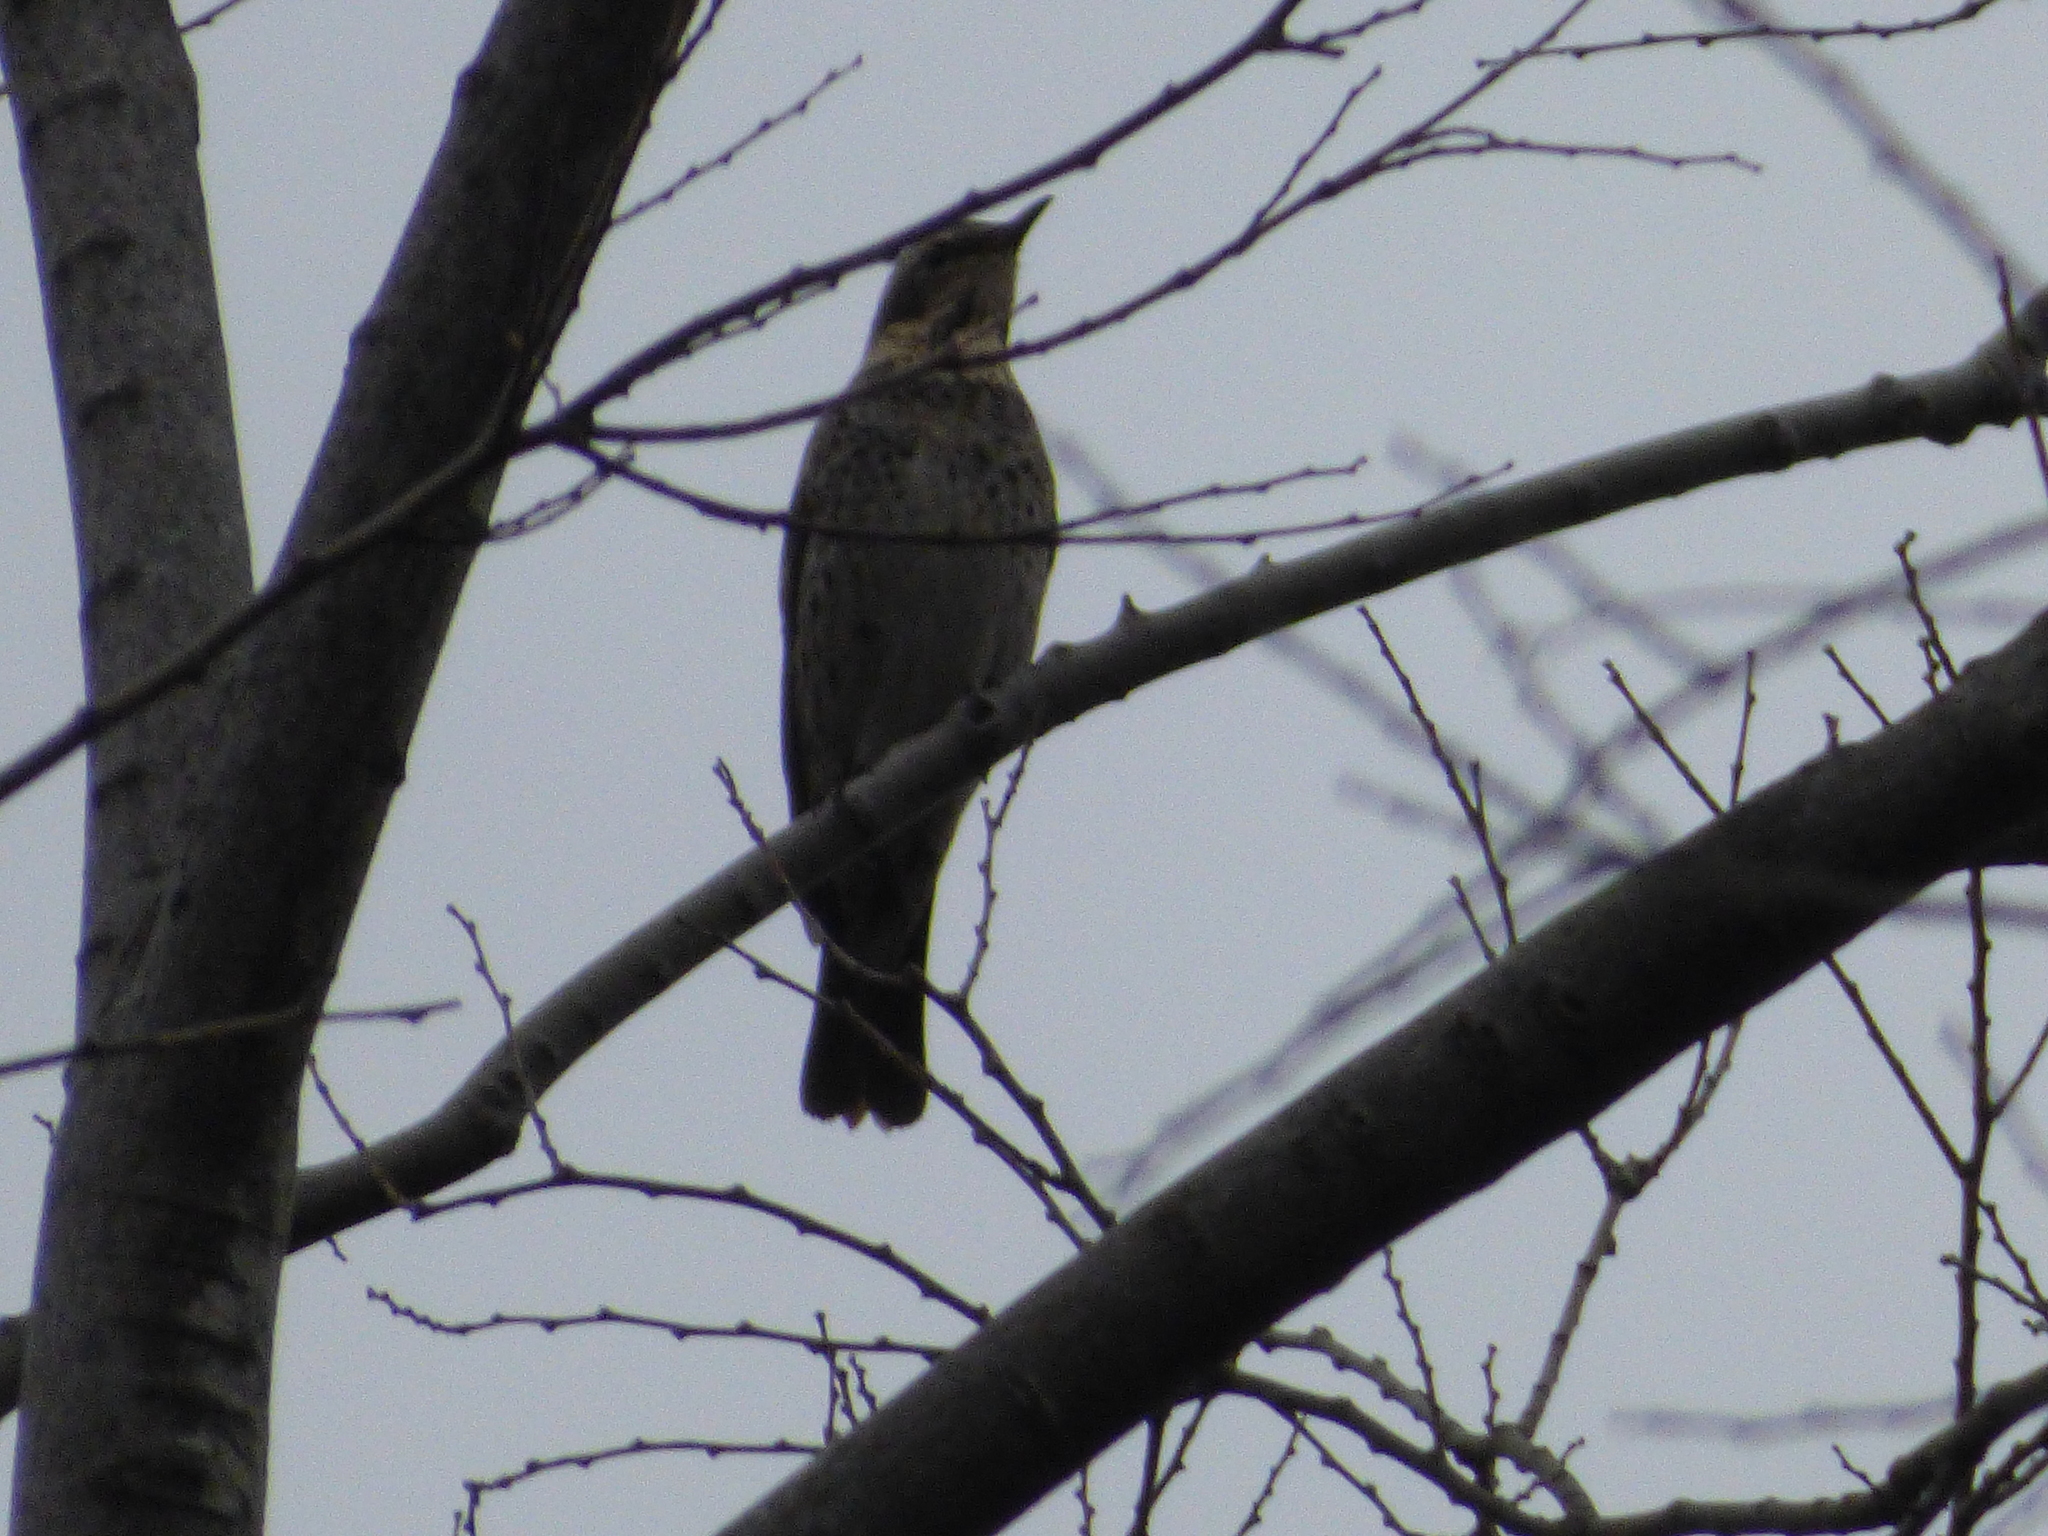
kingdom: Animalia
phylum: Chordata
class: Aves
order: Passeriformes
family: Turdidae
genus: Turdus
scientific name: Turdus eunomus
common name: Dusky thrush
